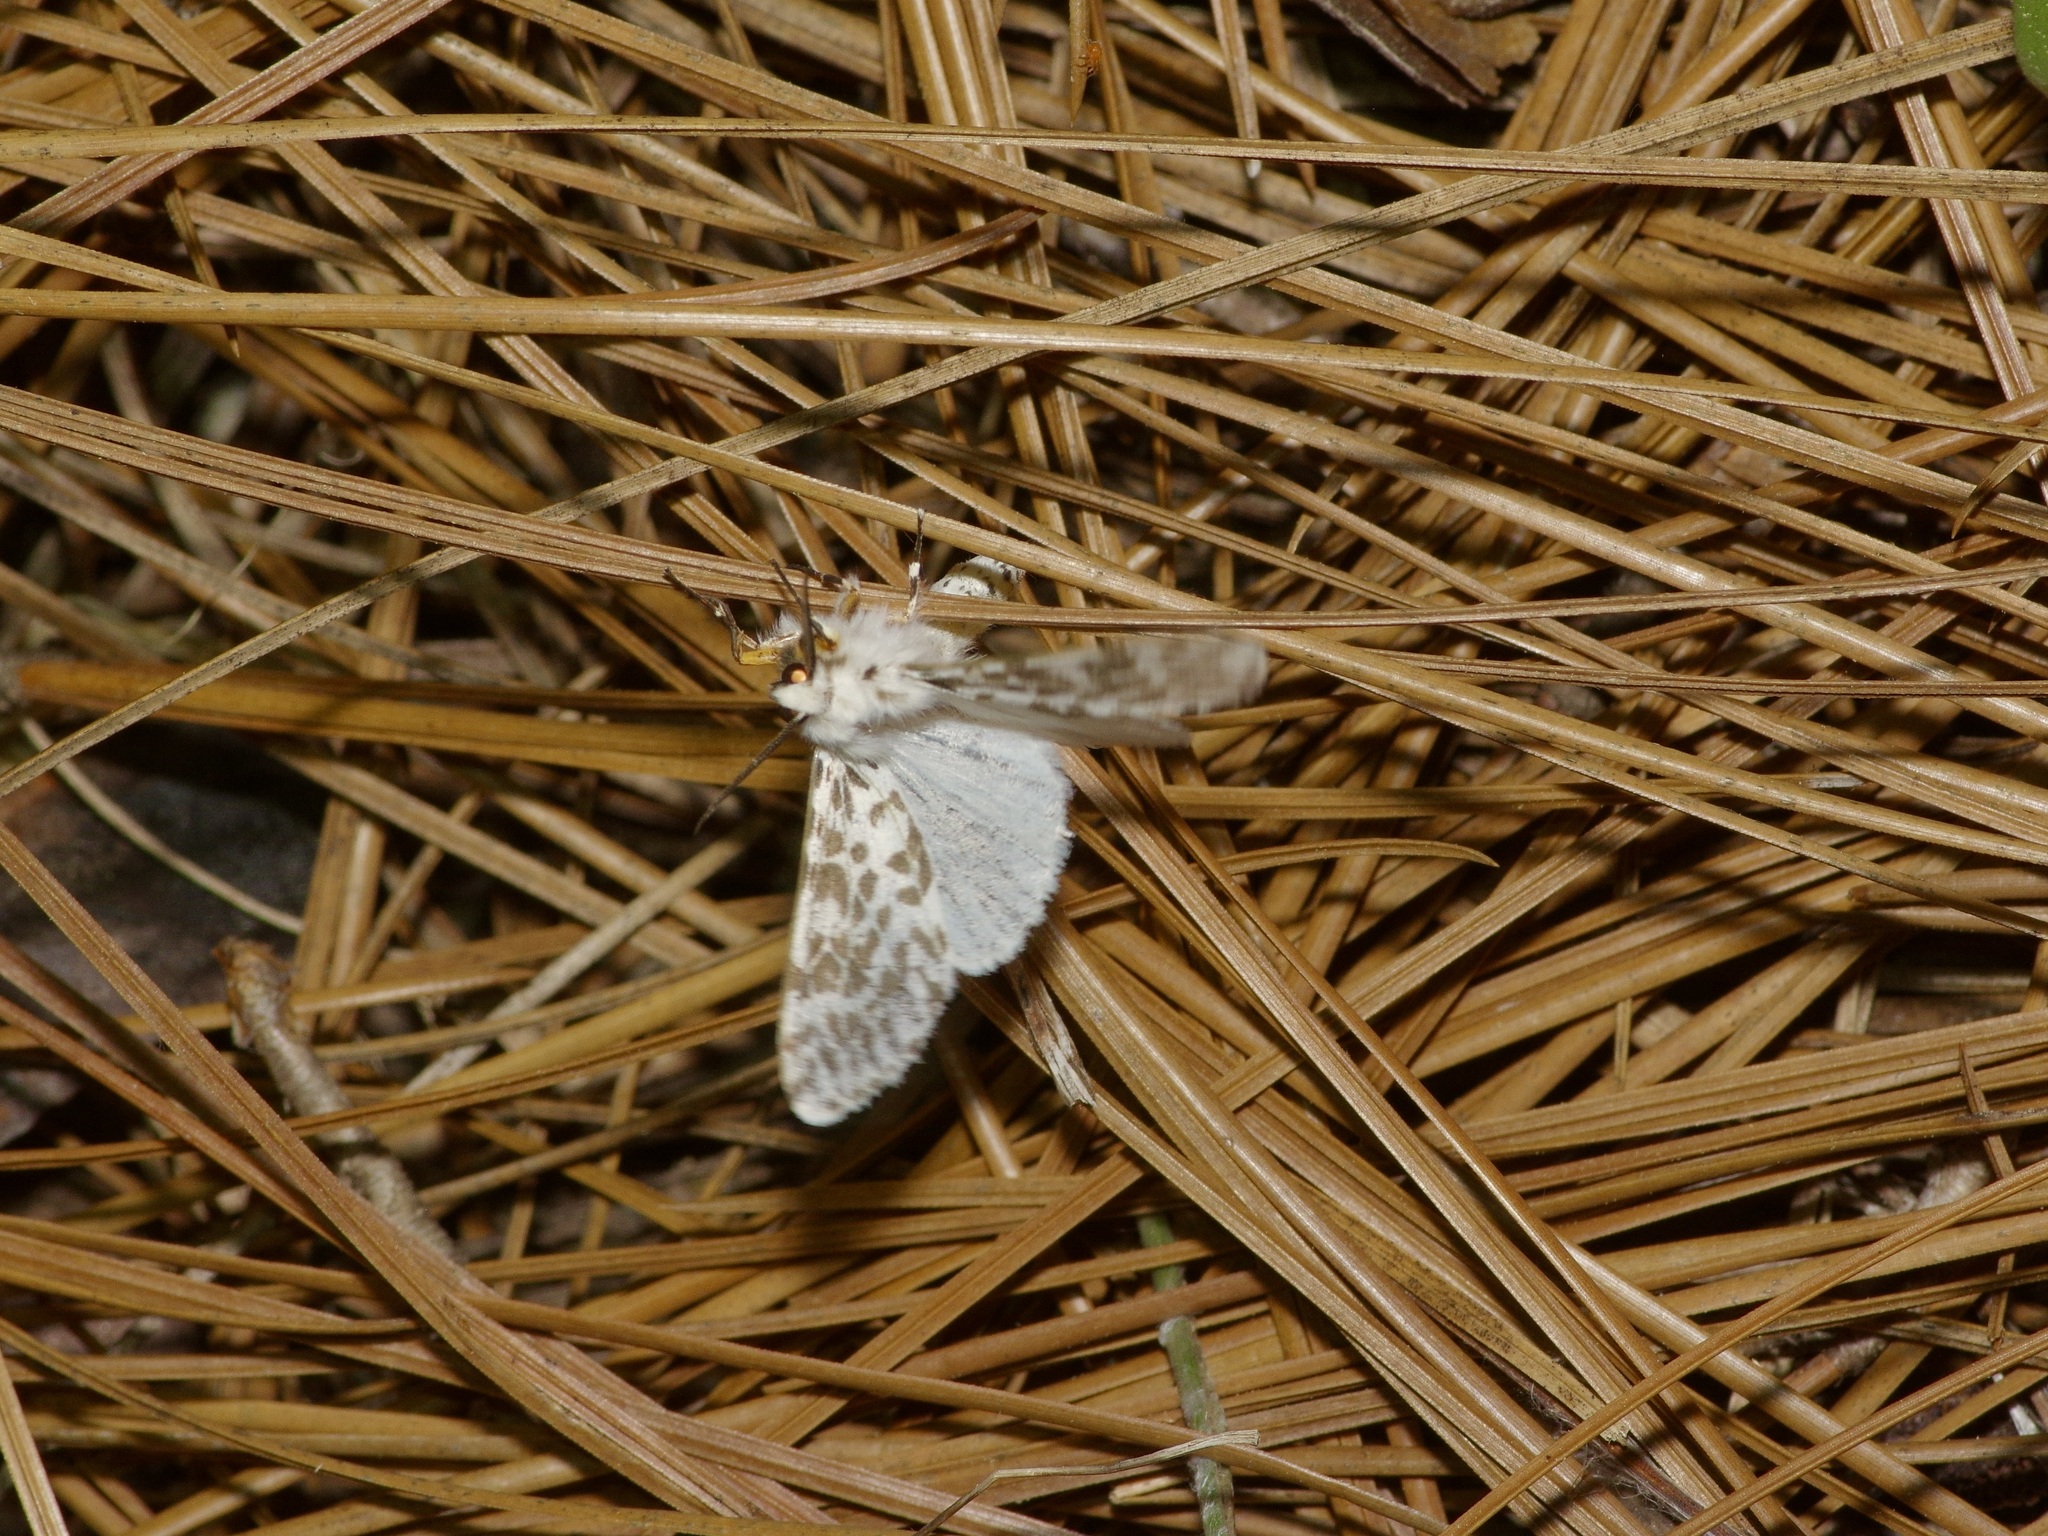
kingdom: Animalia
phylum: Arthropoda
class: Insecta
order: Lepidoptera
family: Erebidae
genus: Hyphantria
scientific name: Hyphantria cunea
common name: American white moth
